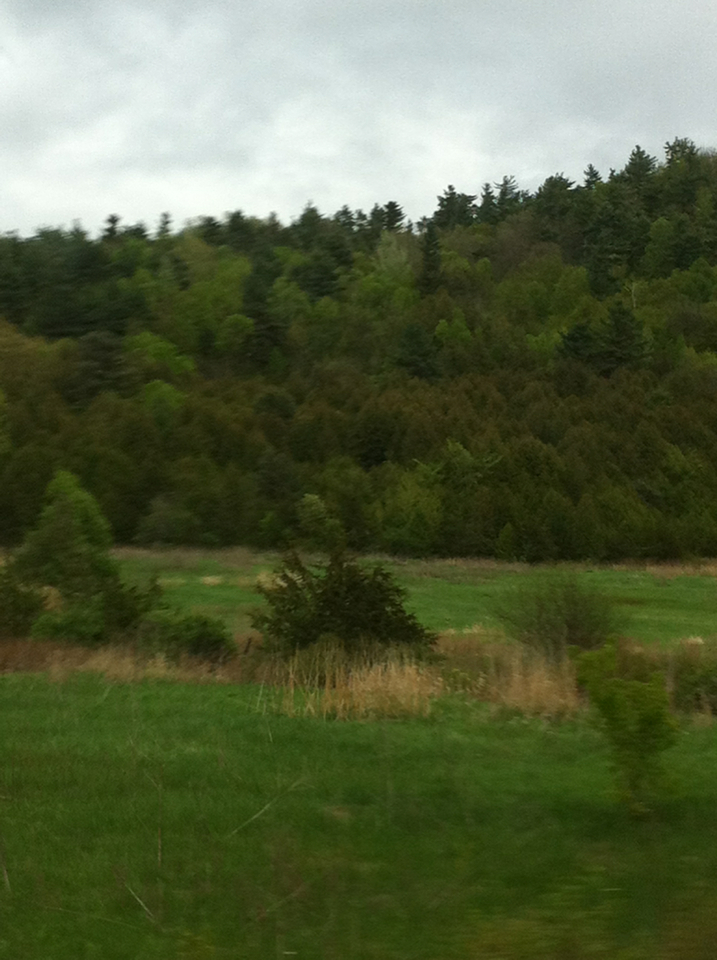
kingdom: Plantae
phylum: Tracheophyta
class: Pinopsida
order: Pinales
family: Cupressaceae
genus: Juniperus
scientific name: Juniperus virginiana
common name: Red juniper
